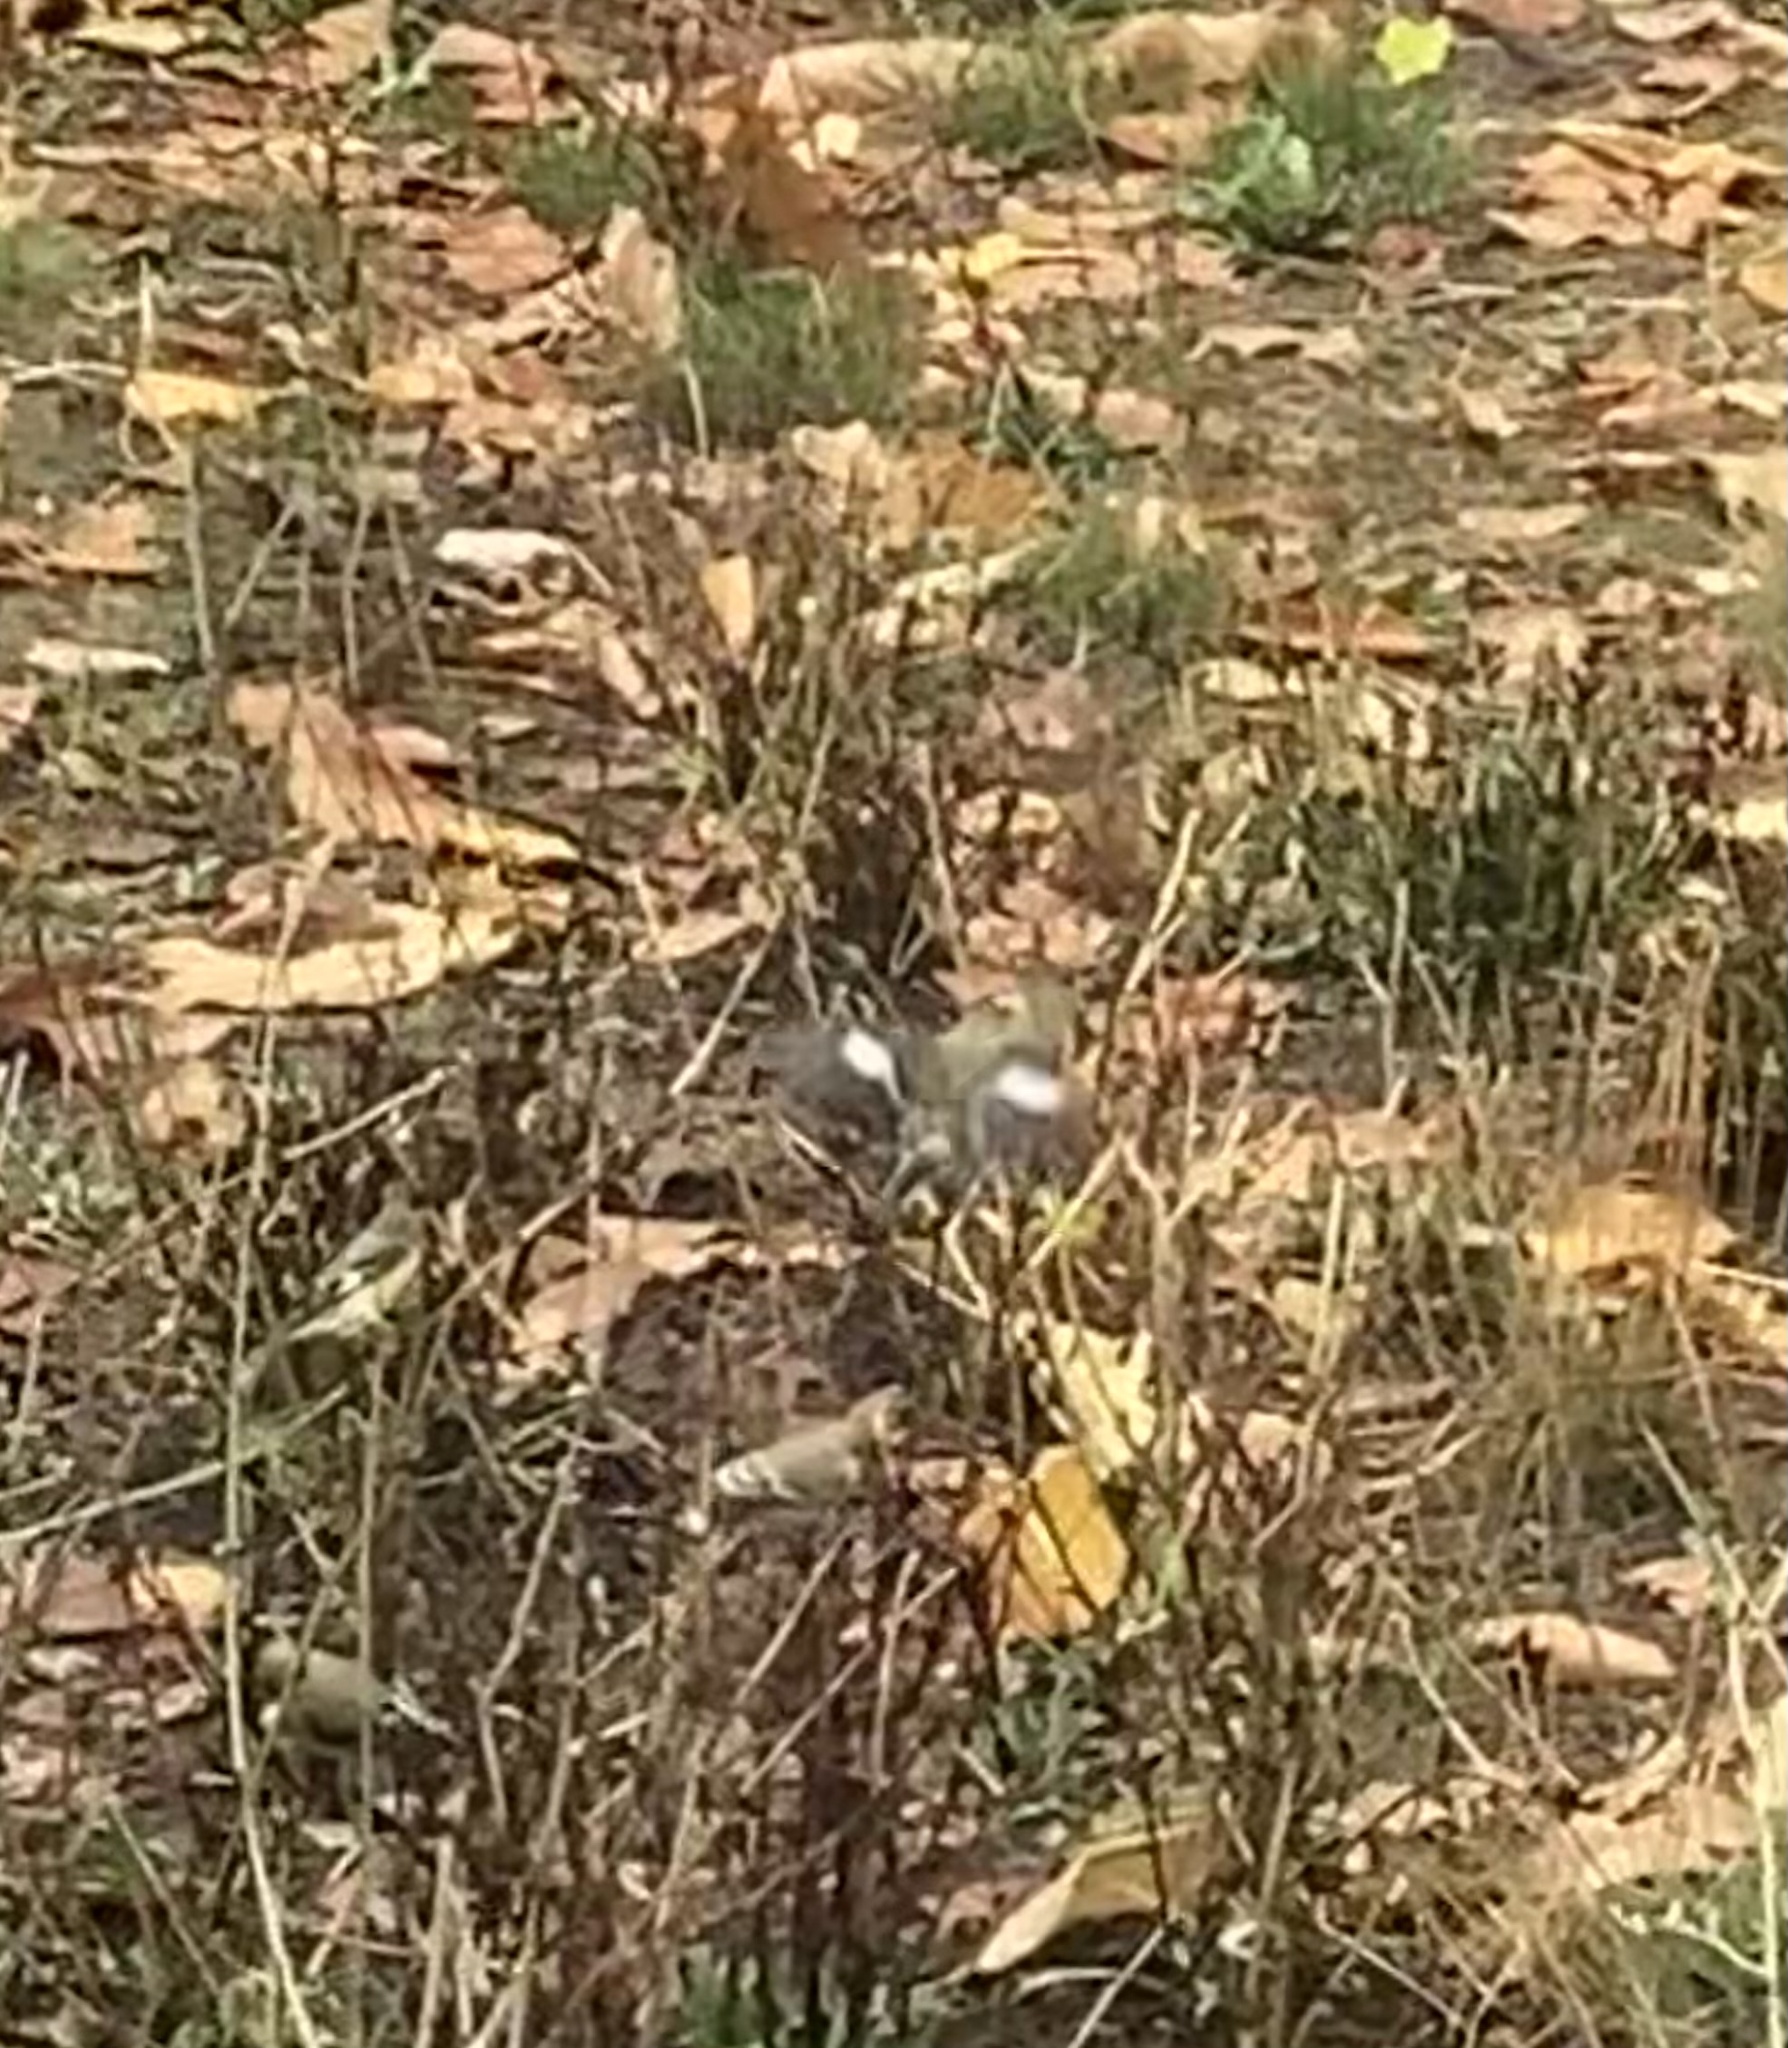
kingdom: Animalia
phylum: Chordata
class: Aves
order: Passeriformes
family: Fringillidae
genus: Spinus
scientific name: Spinus psaltria
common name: Lesser goldfinch
